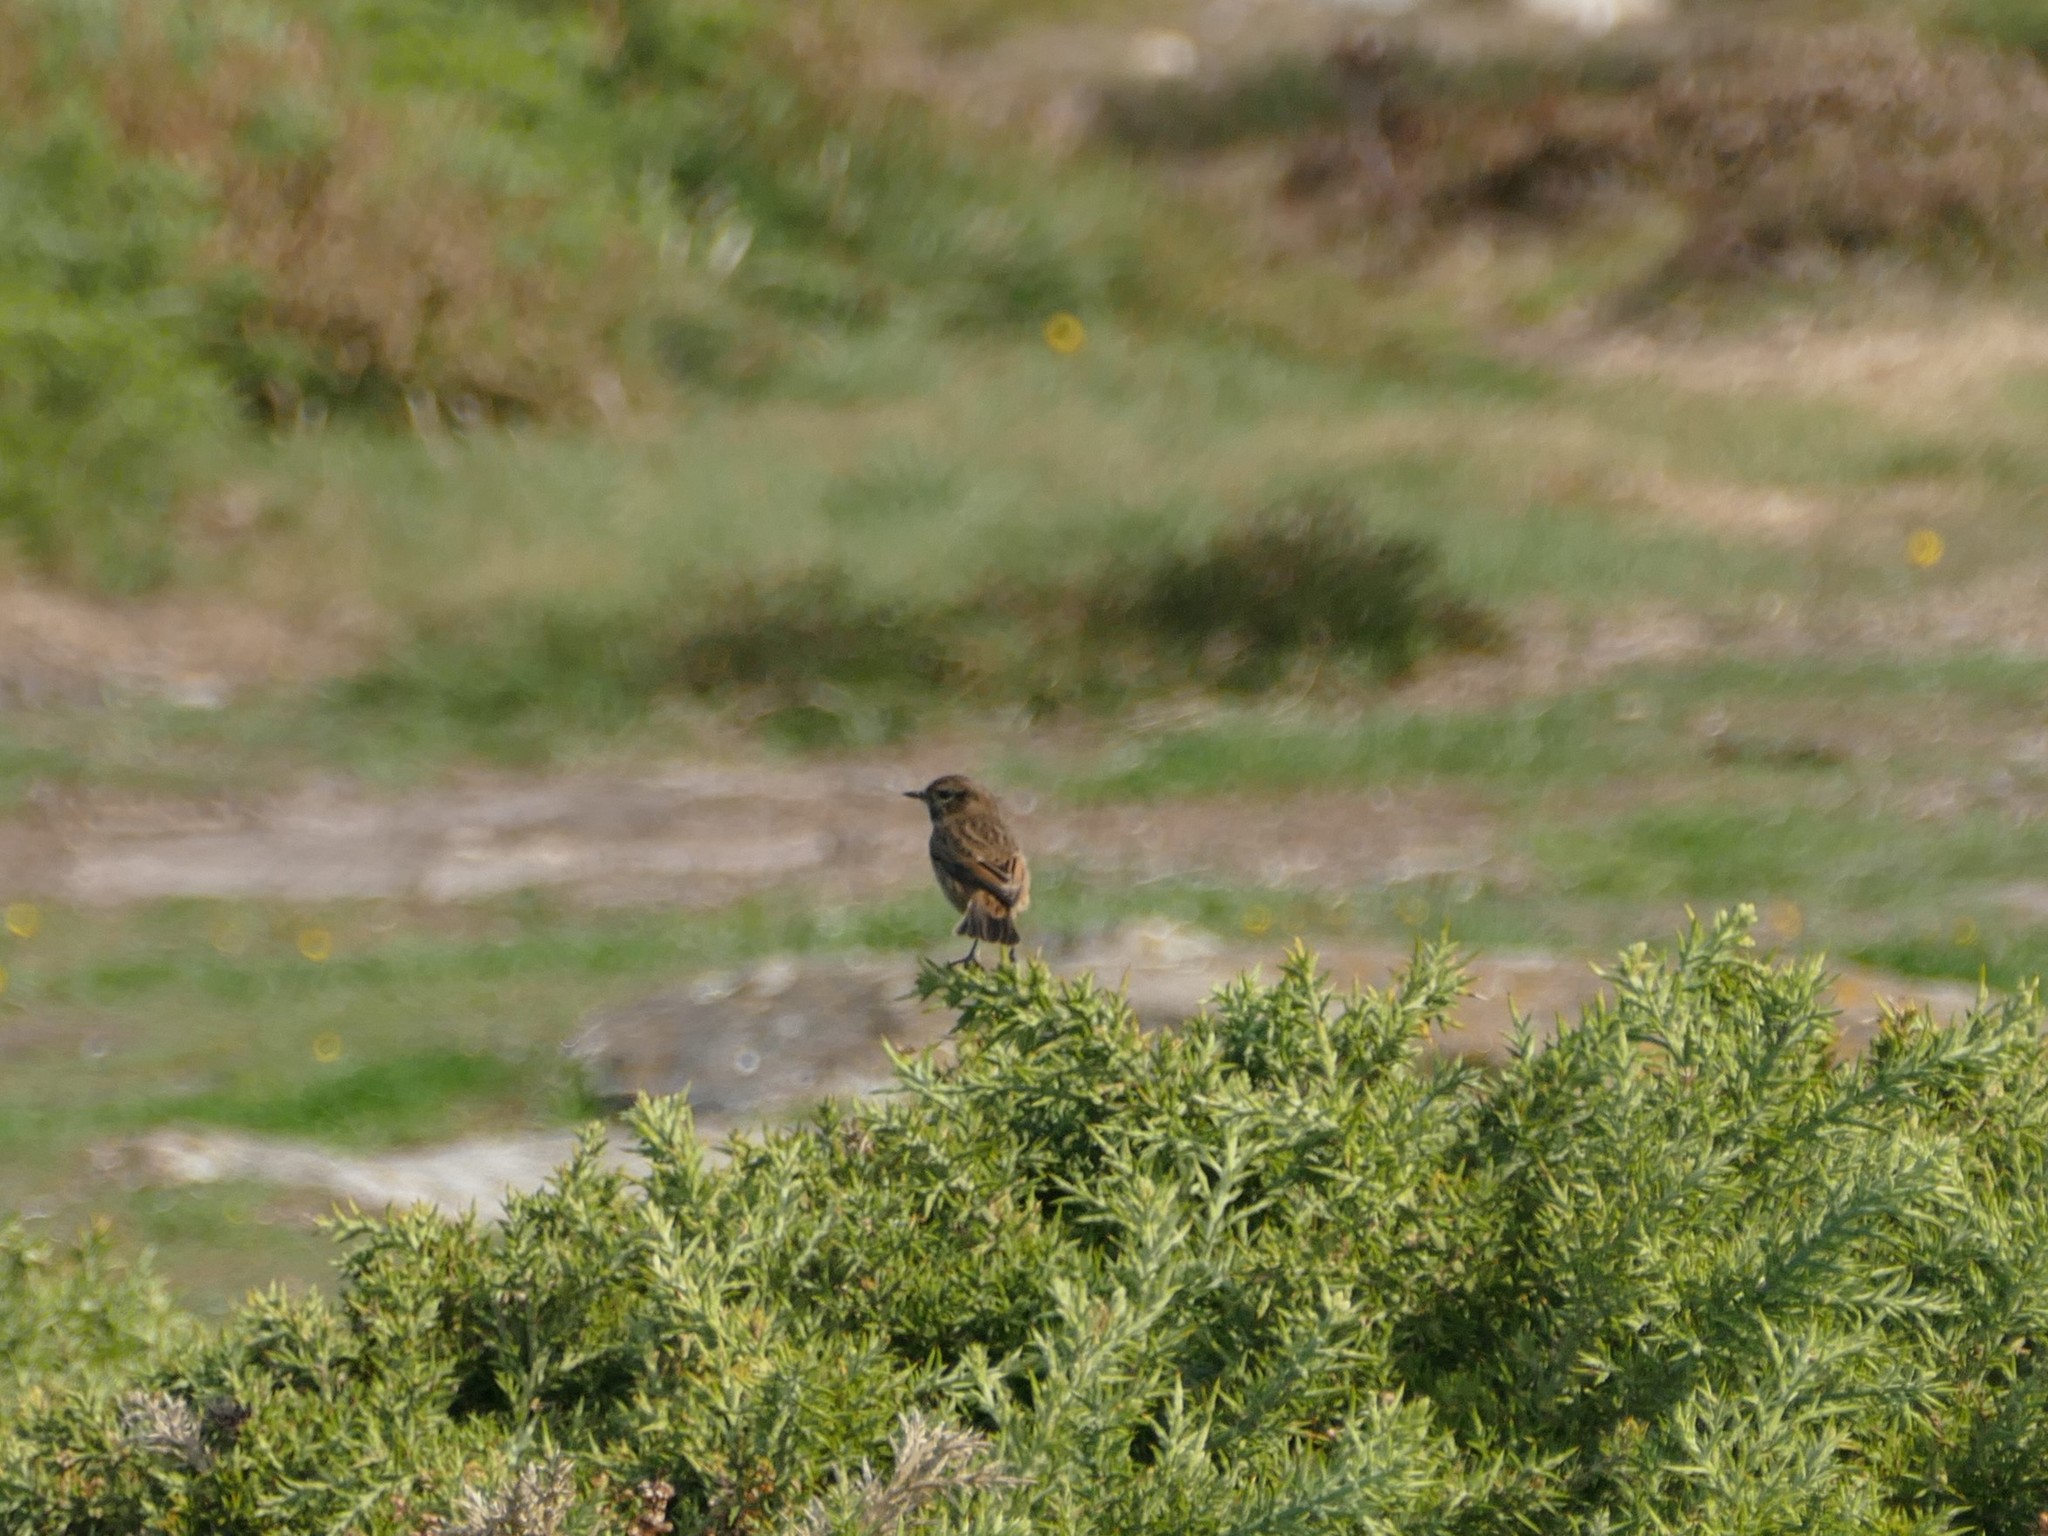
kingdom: Animalia
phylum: Chordata
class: Aves
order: Passeriformes
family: Muscicapidae
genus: Saxicola
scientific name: Saxicola rubicola
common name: European stonechat
